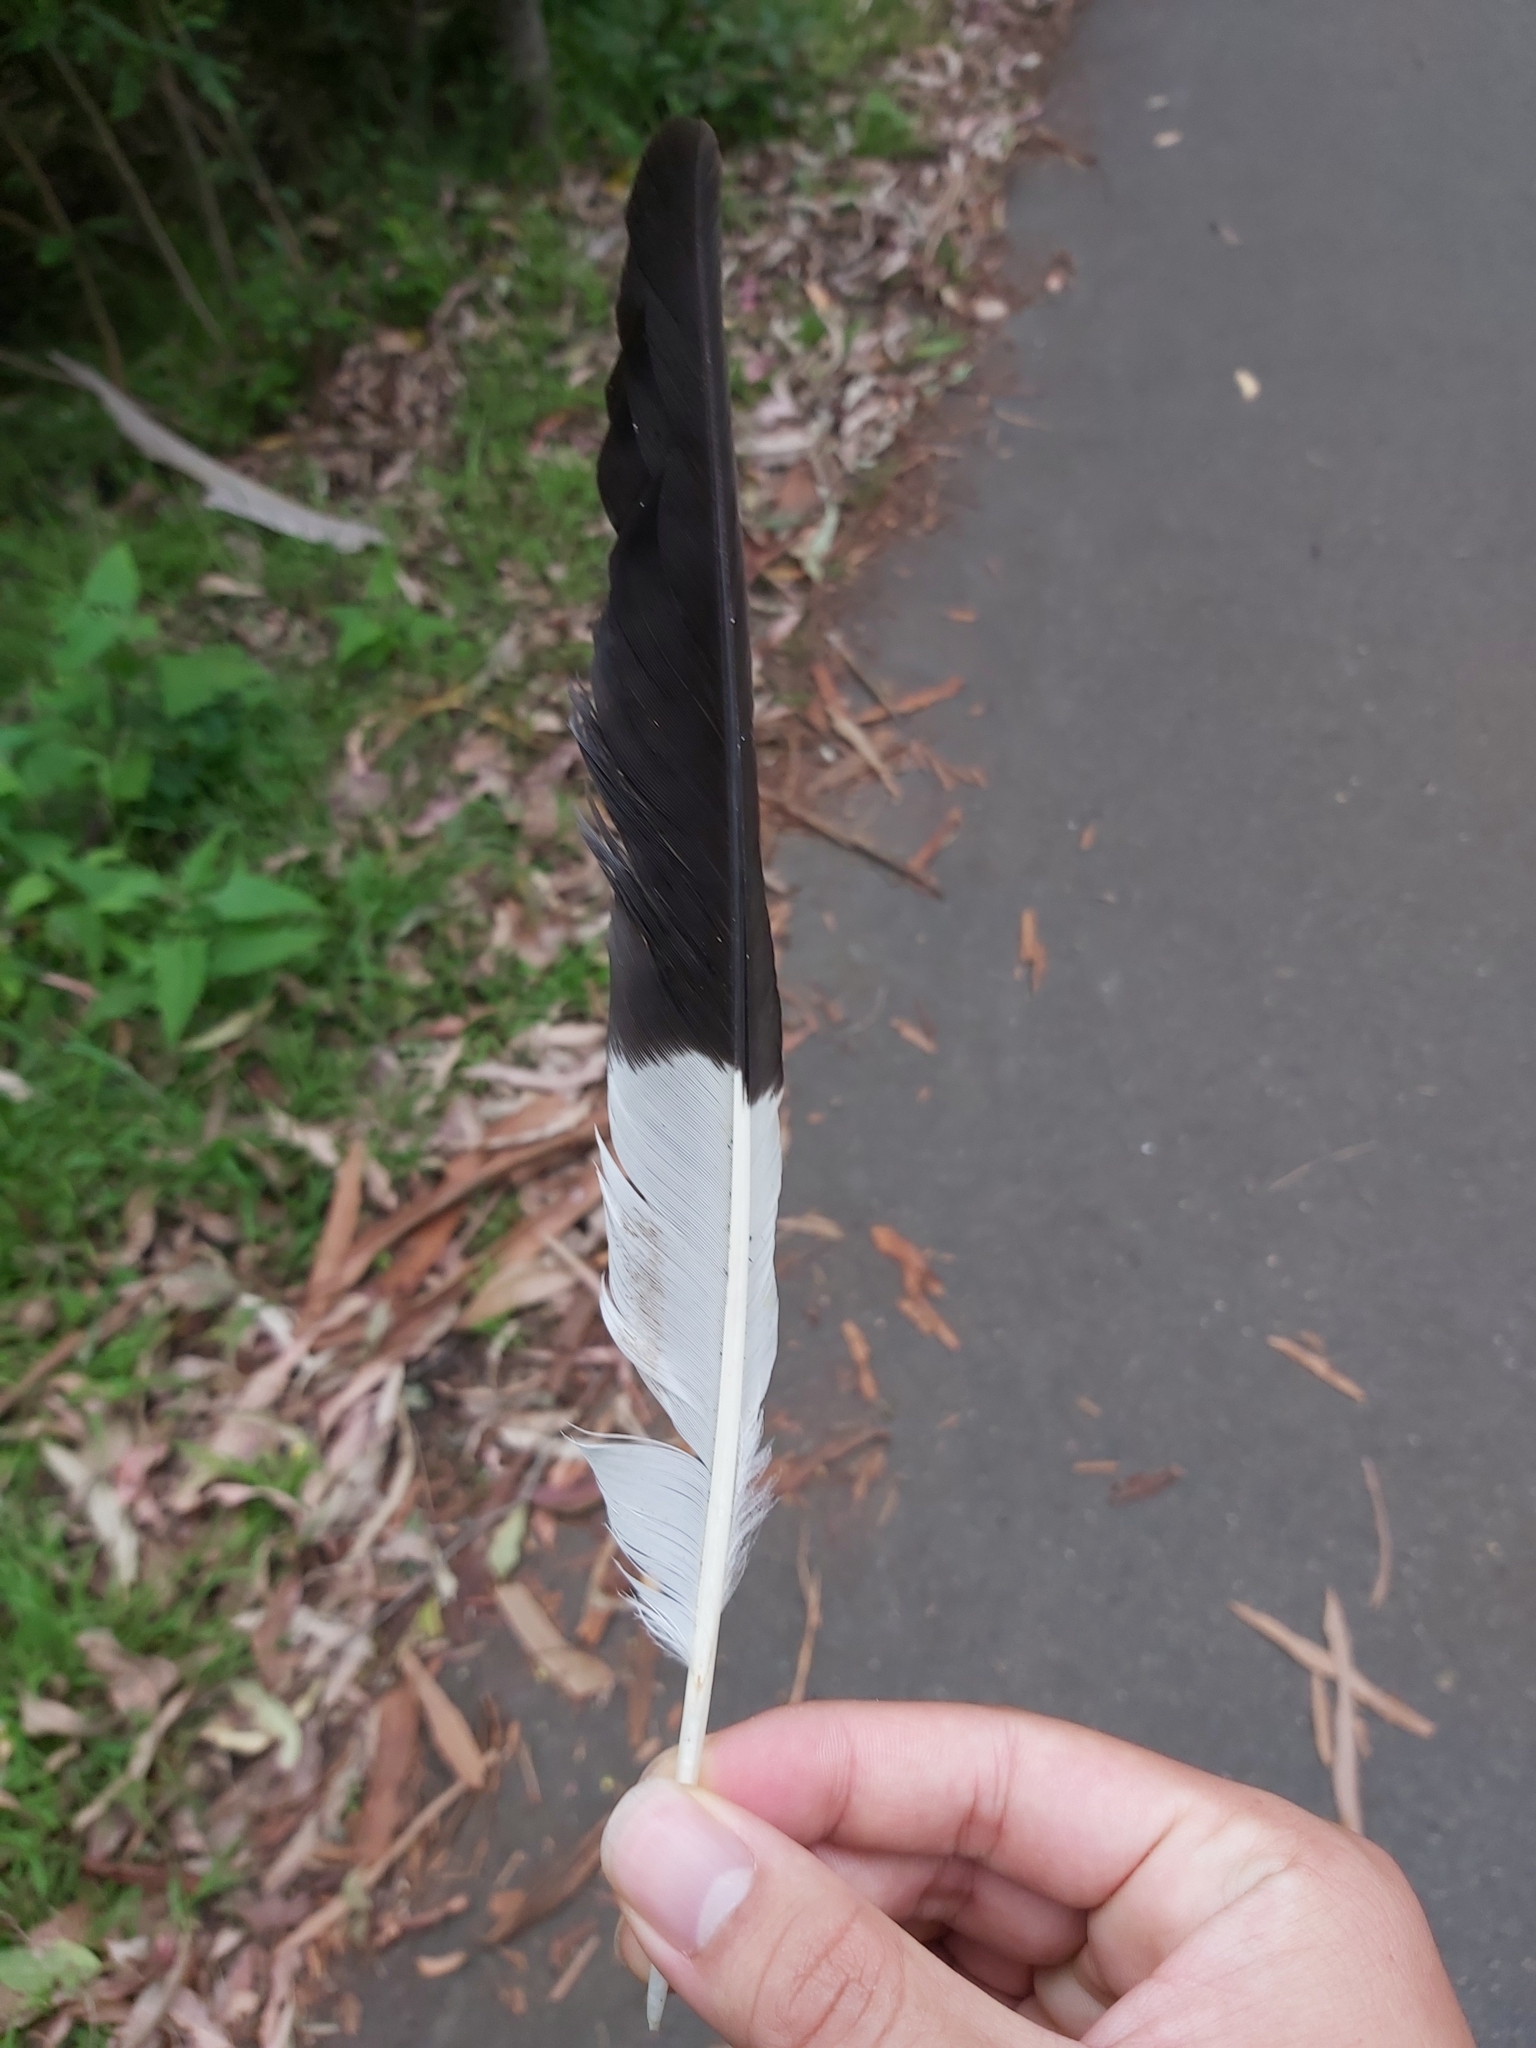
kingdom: Animalia
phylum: Chordata
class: Aves
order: Passeriformes
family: Cracticidae
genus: Strepera
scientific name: Strepera graculina
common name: Pied currawong
